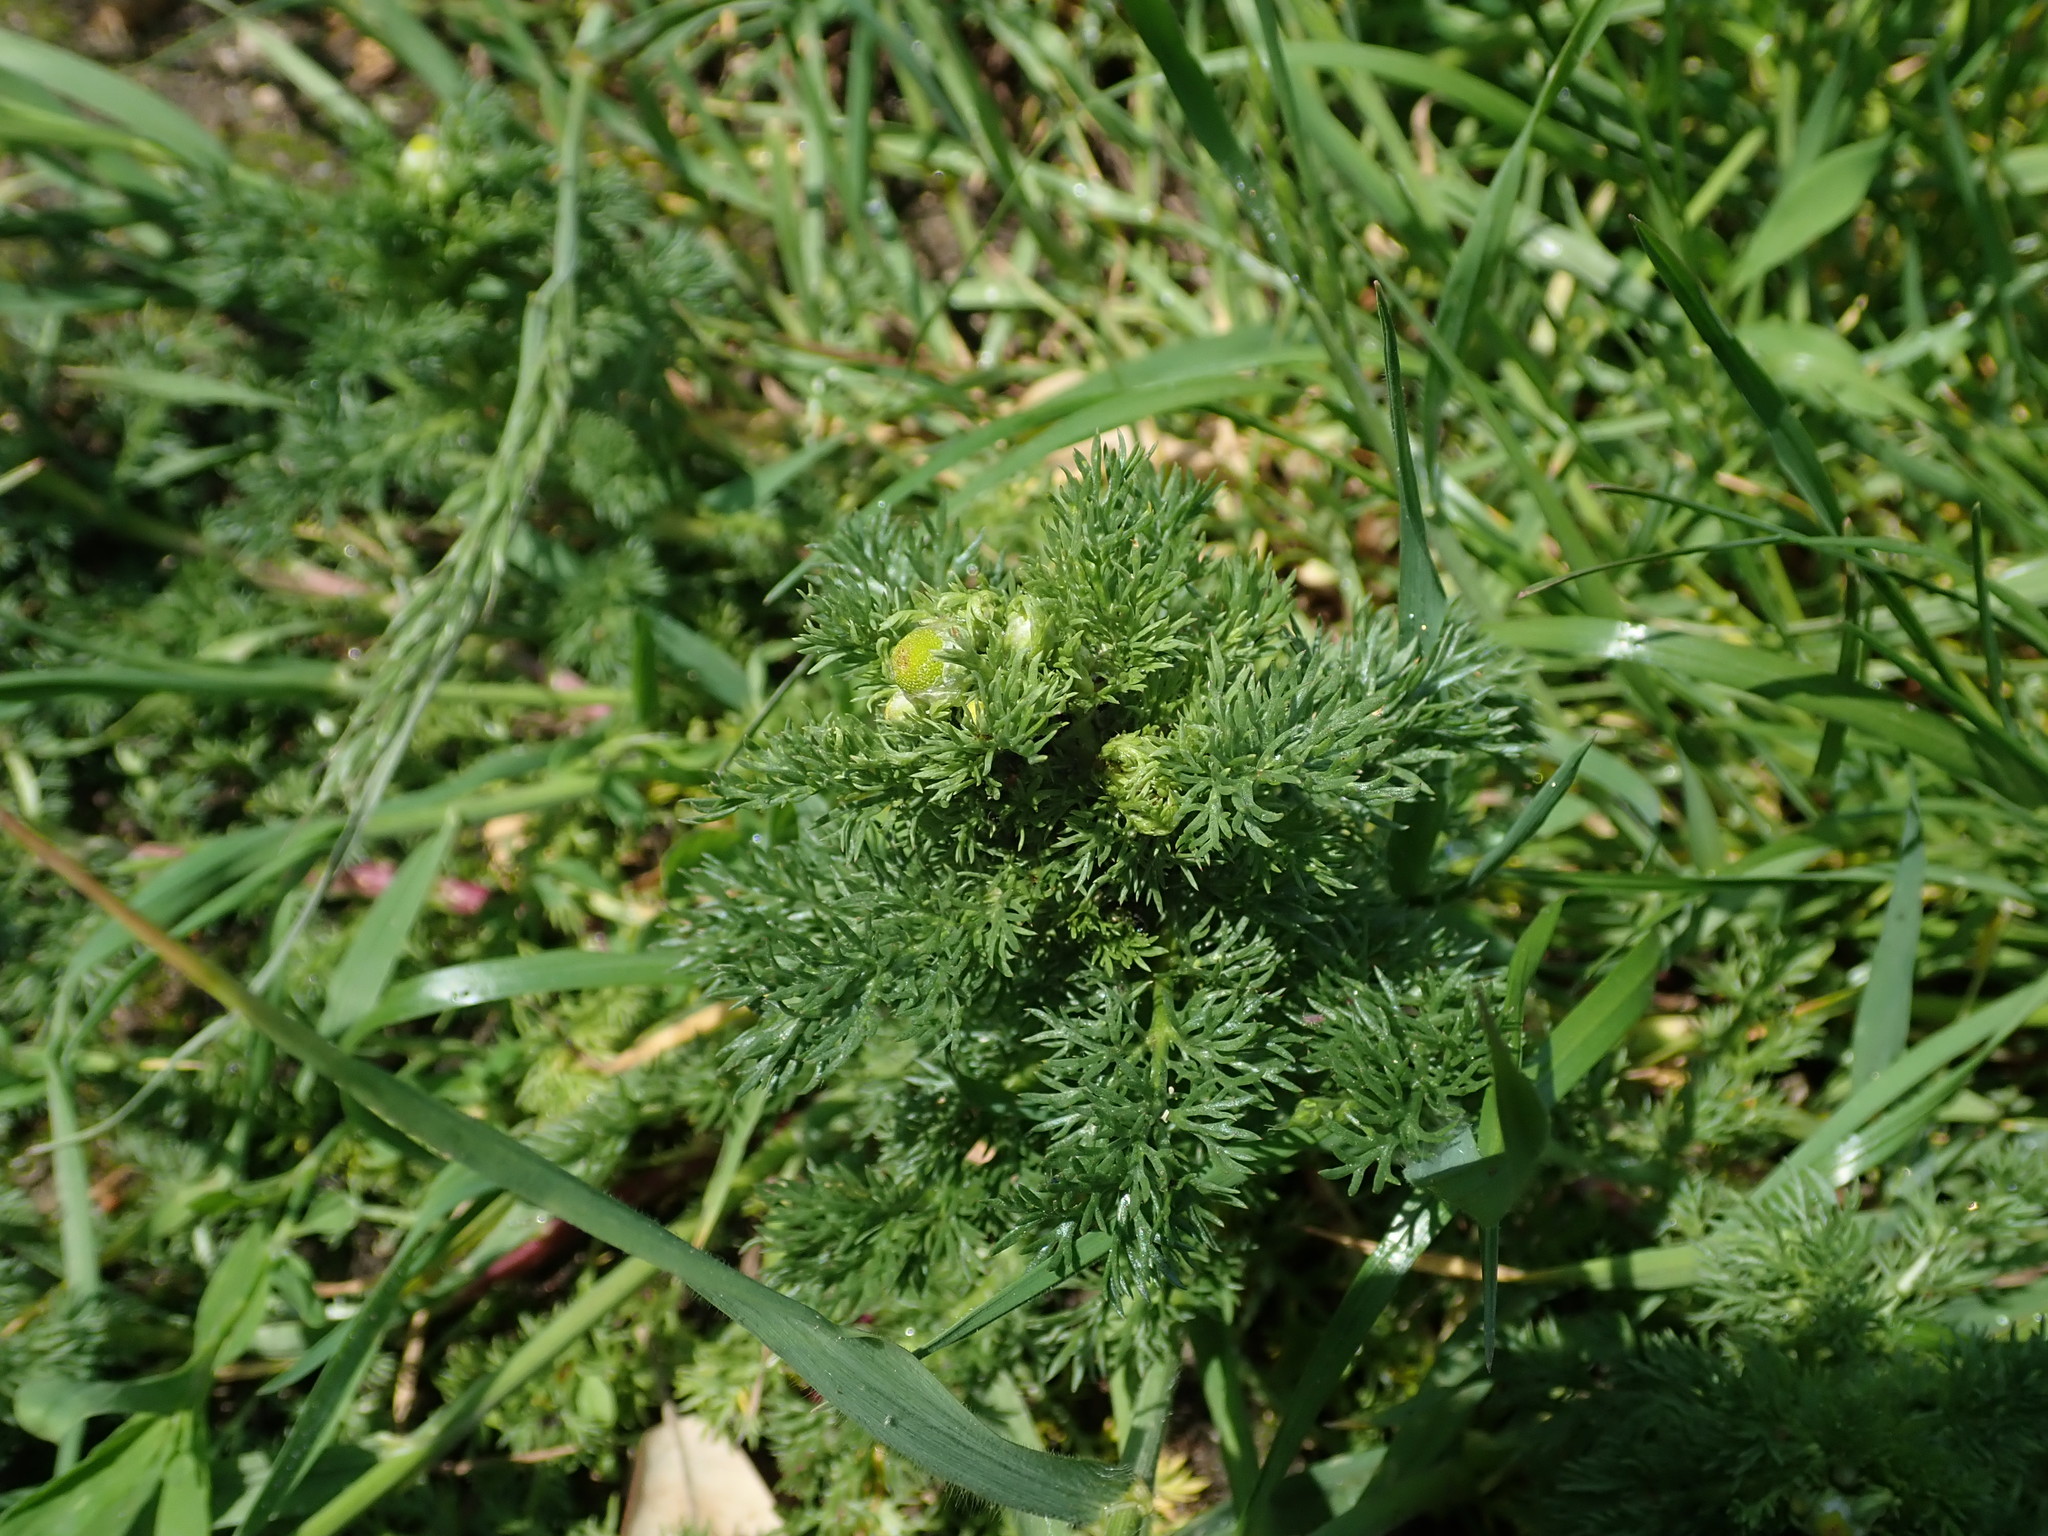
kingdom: Plantae
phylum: Tracheophyta
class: Magnoliopsida
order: Asterales
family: Asteraceae
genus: Matricaria
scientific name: Matricaria discoidea
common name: Disc mayweed
